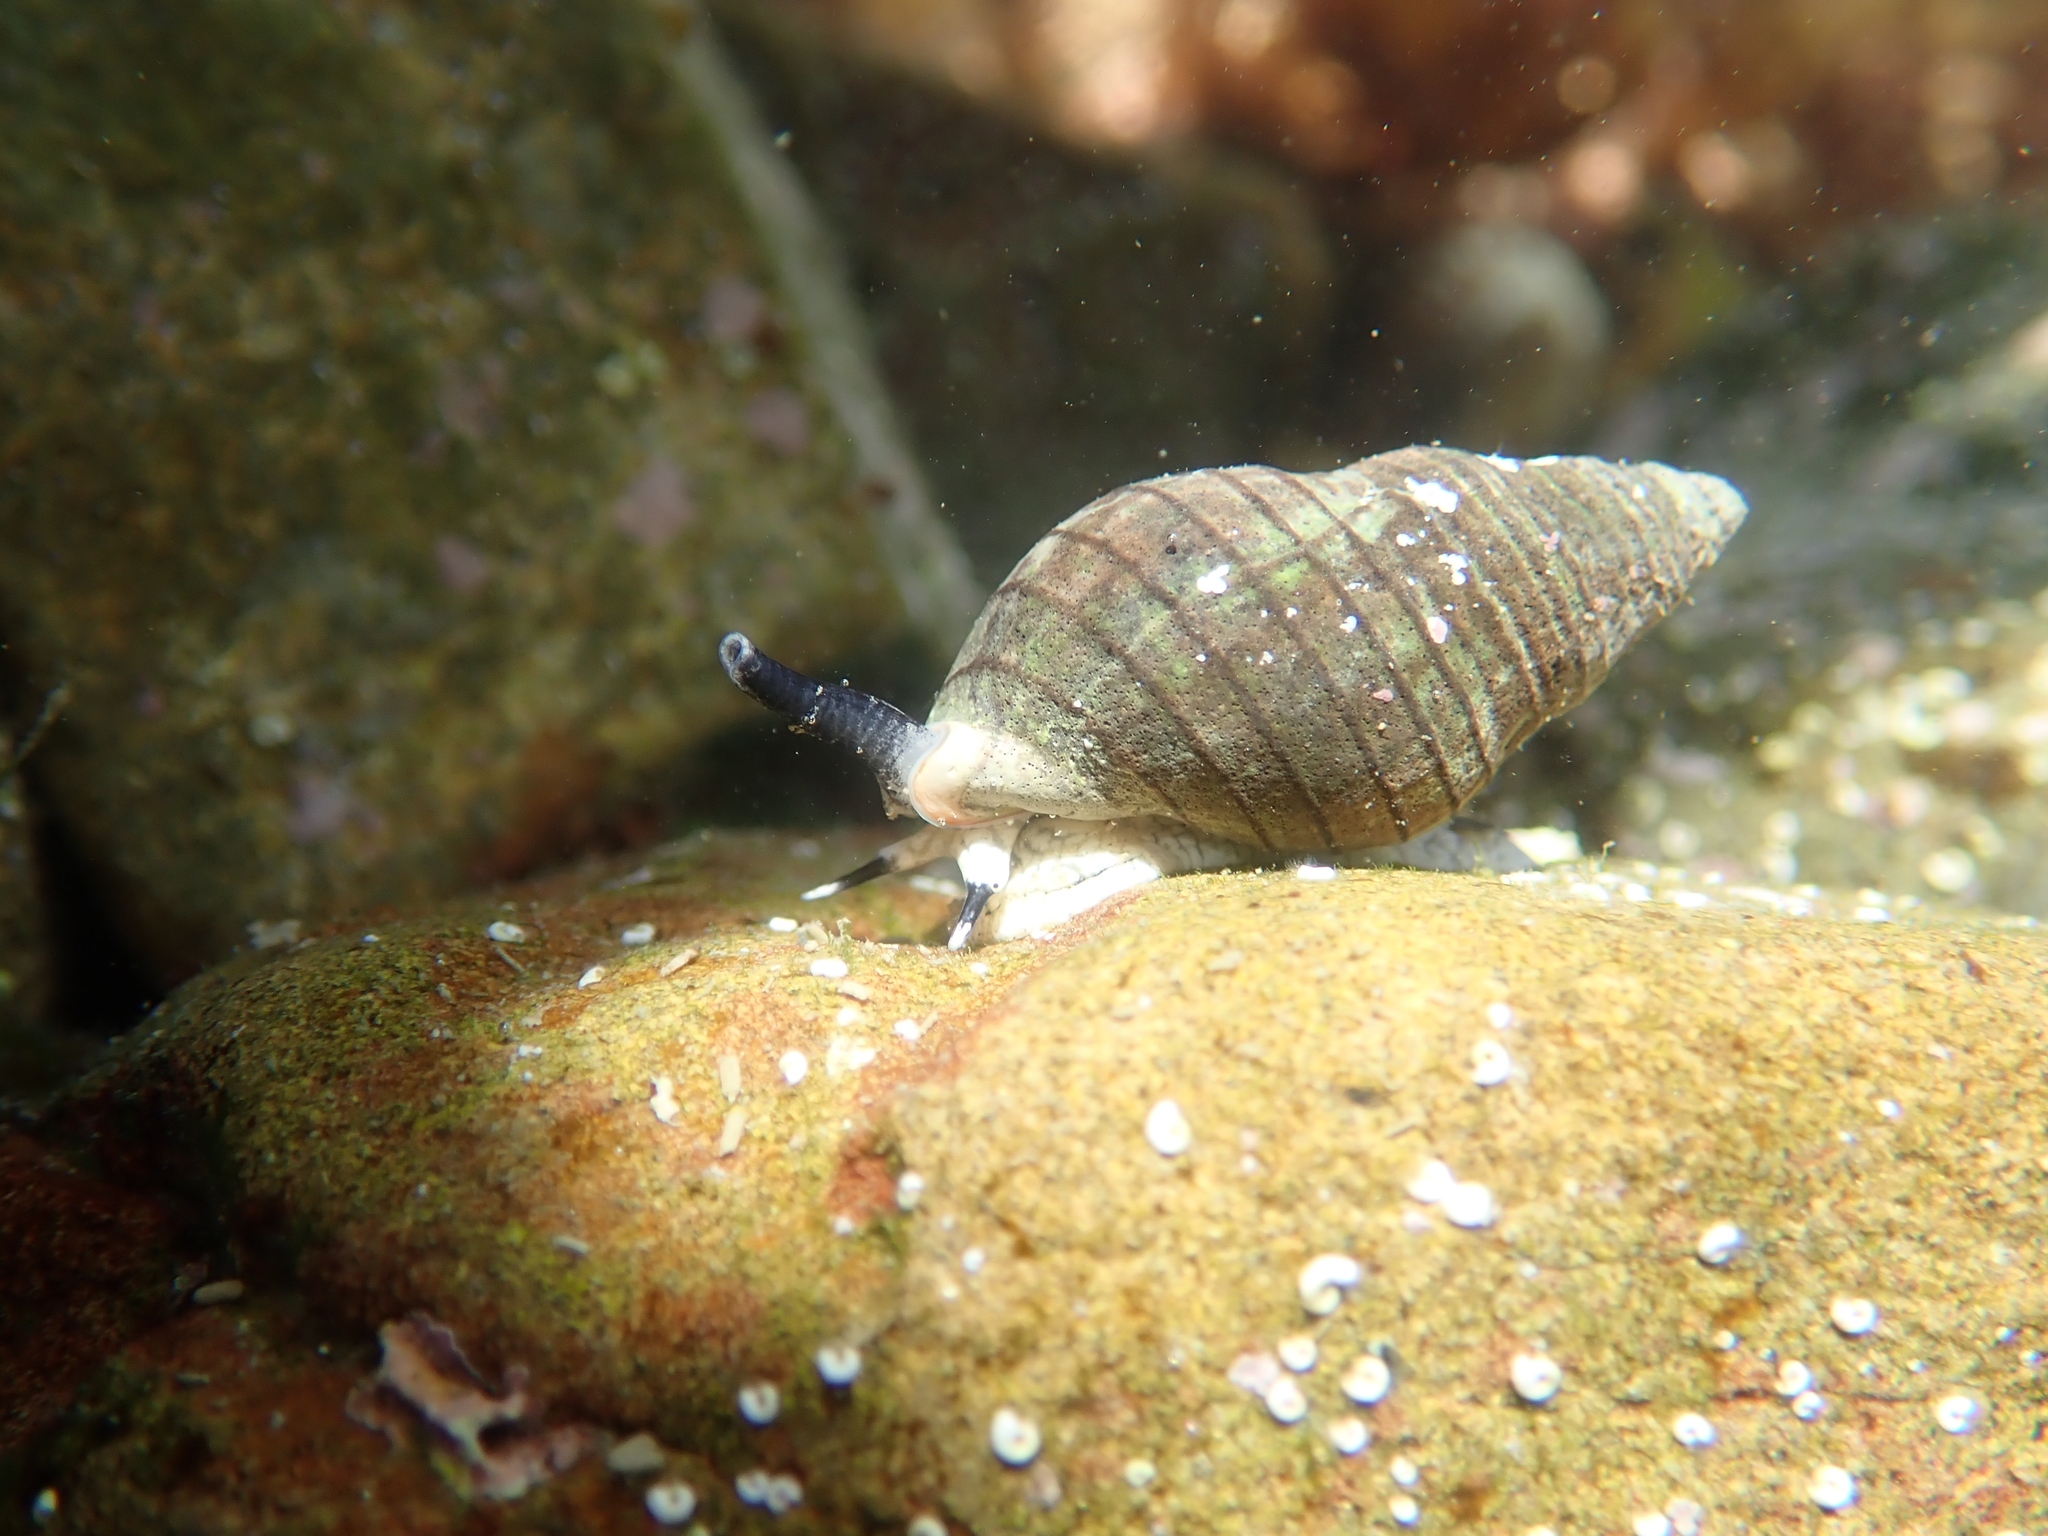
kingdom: Animalia
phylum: Mollusca
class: Gastropoda
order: Neogastropoda
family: Cominellidae
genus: Cominella
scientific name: Cominella virgata
